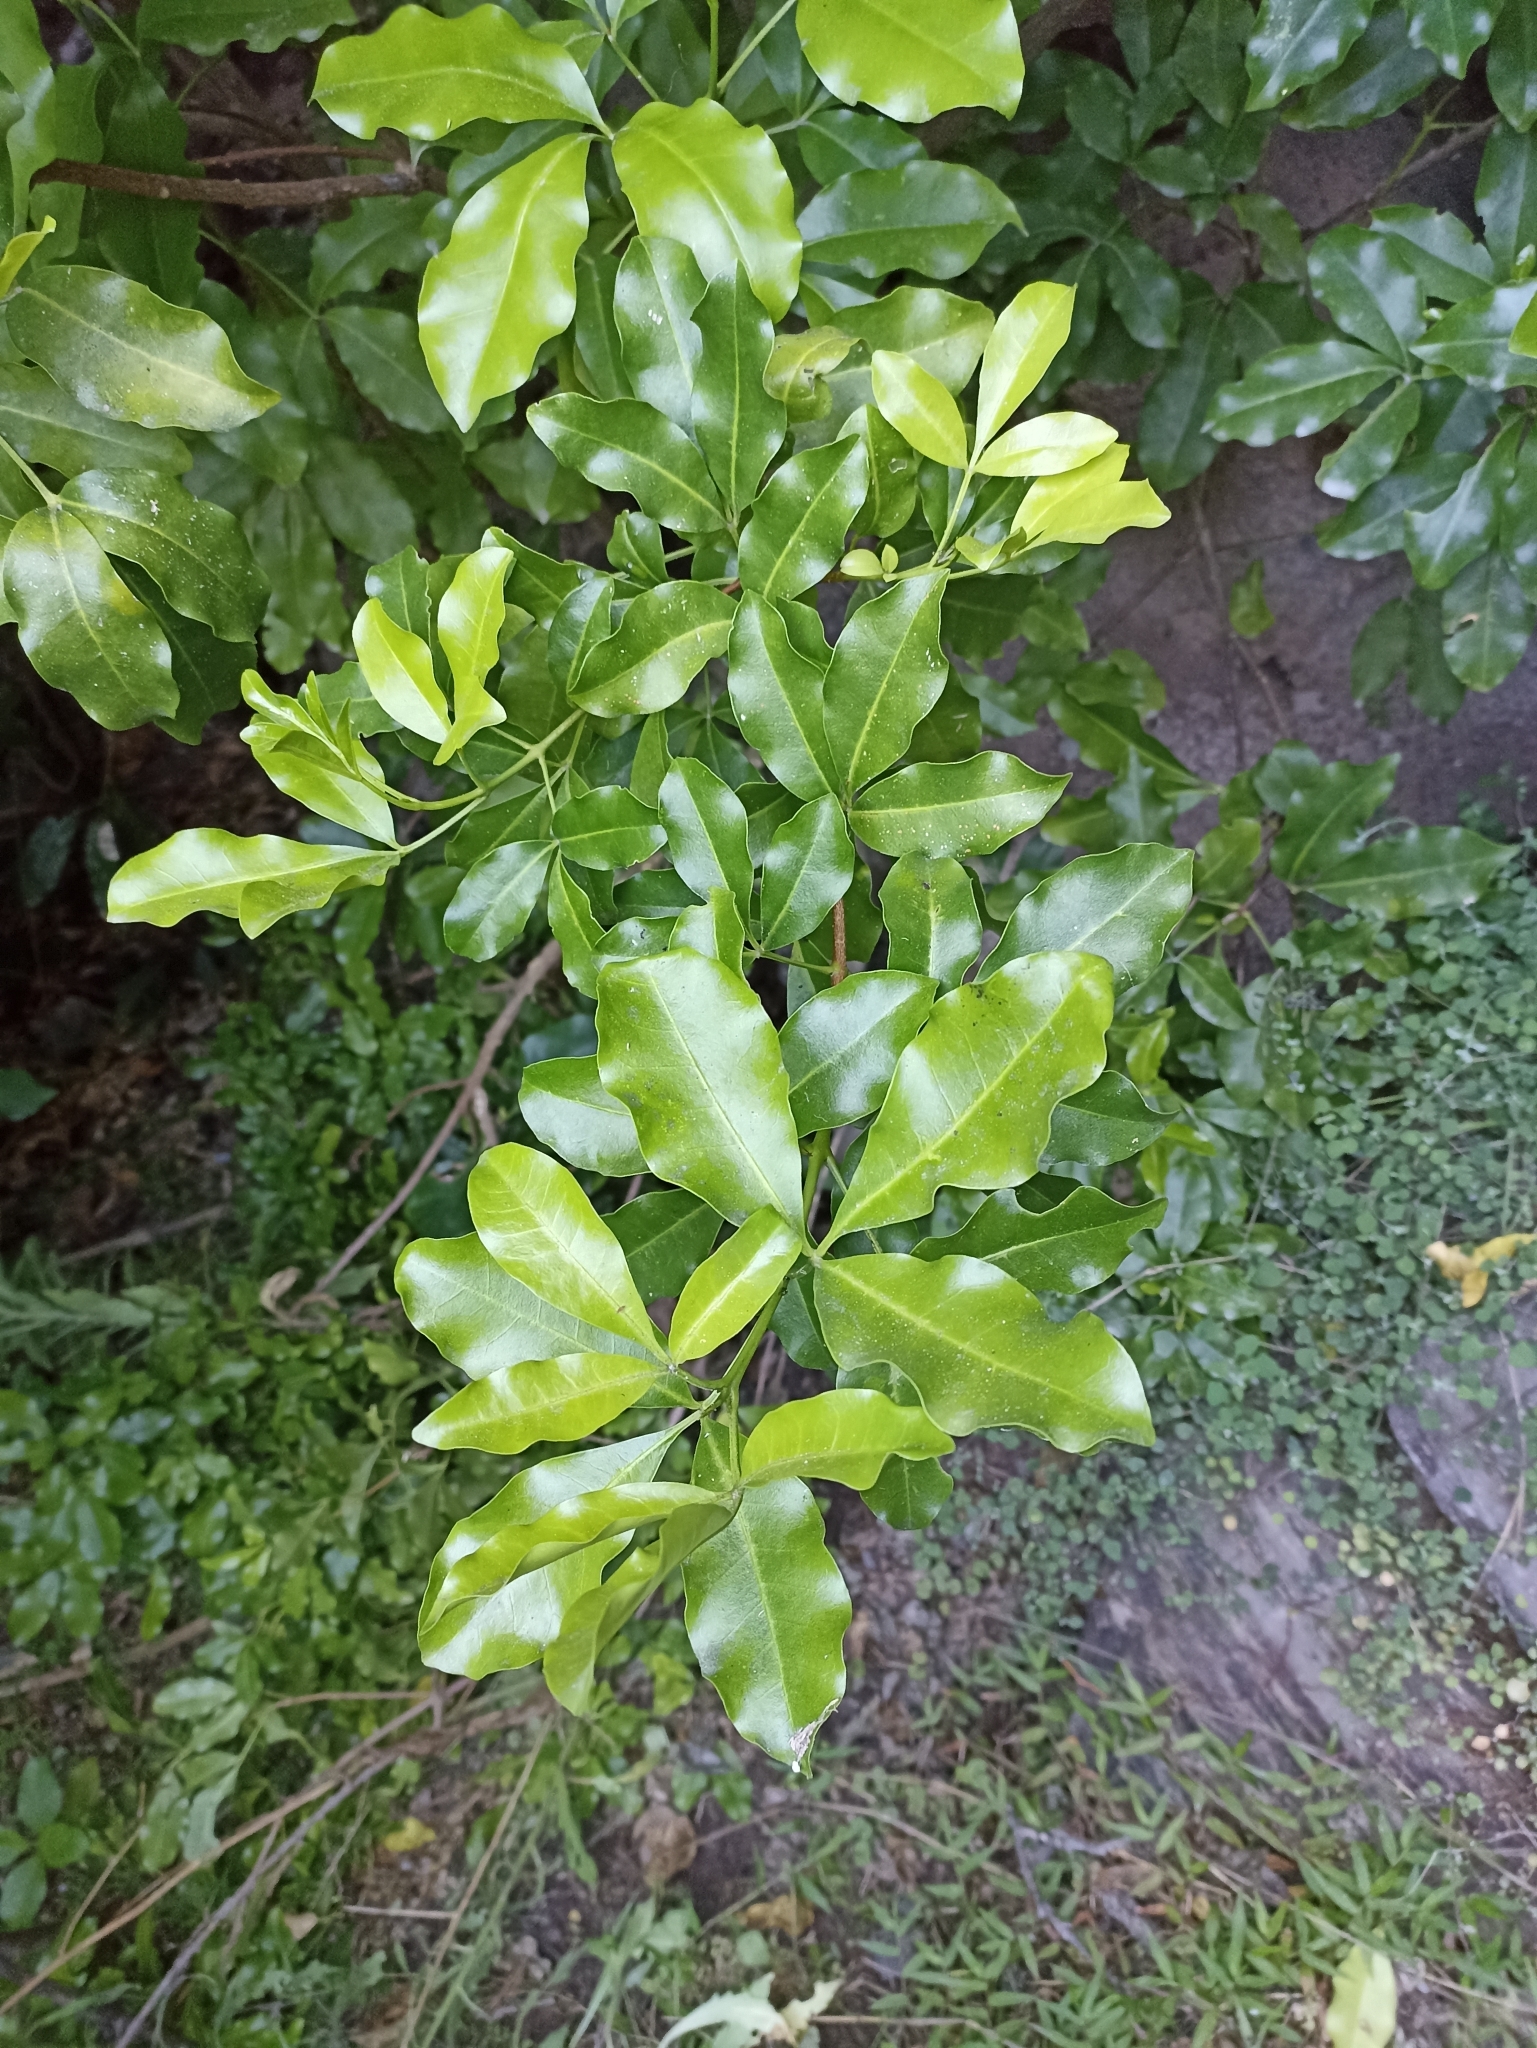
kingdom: Plantae
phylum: Tracheophyta
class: Magnoliopsida
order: Sapindales
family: Rutaceae
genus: Melicope
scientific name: Melicope ternata
